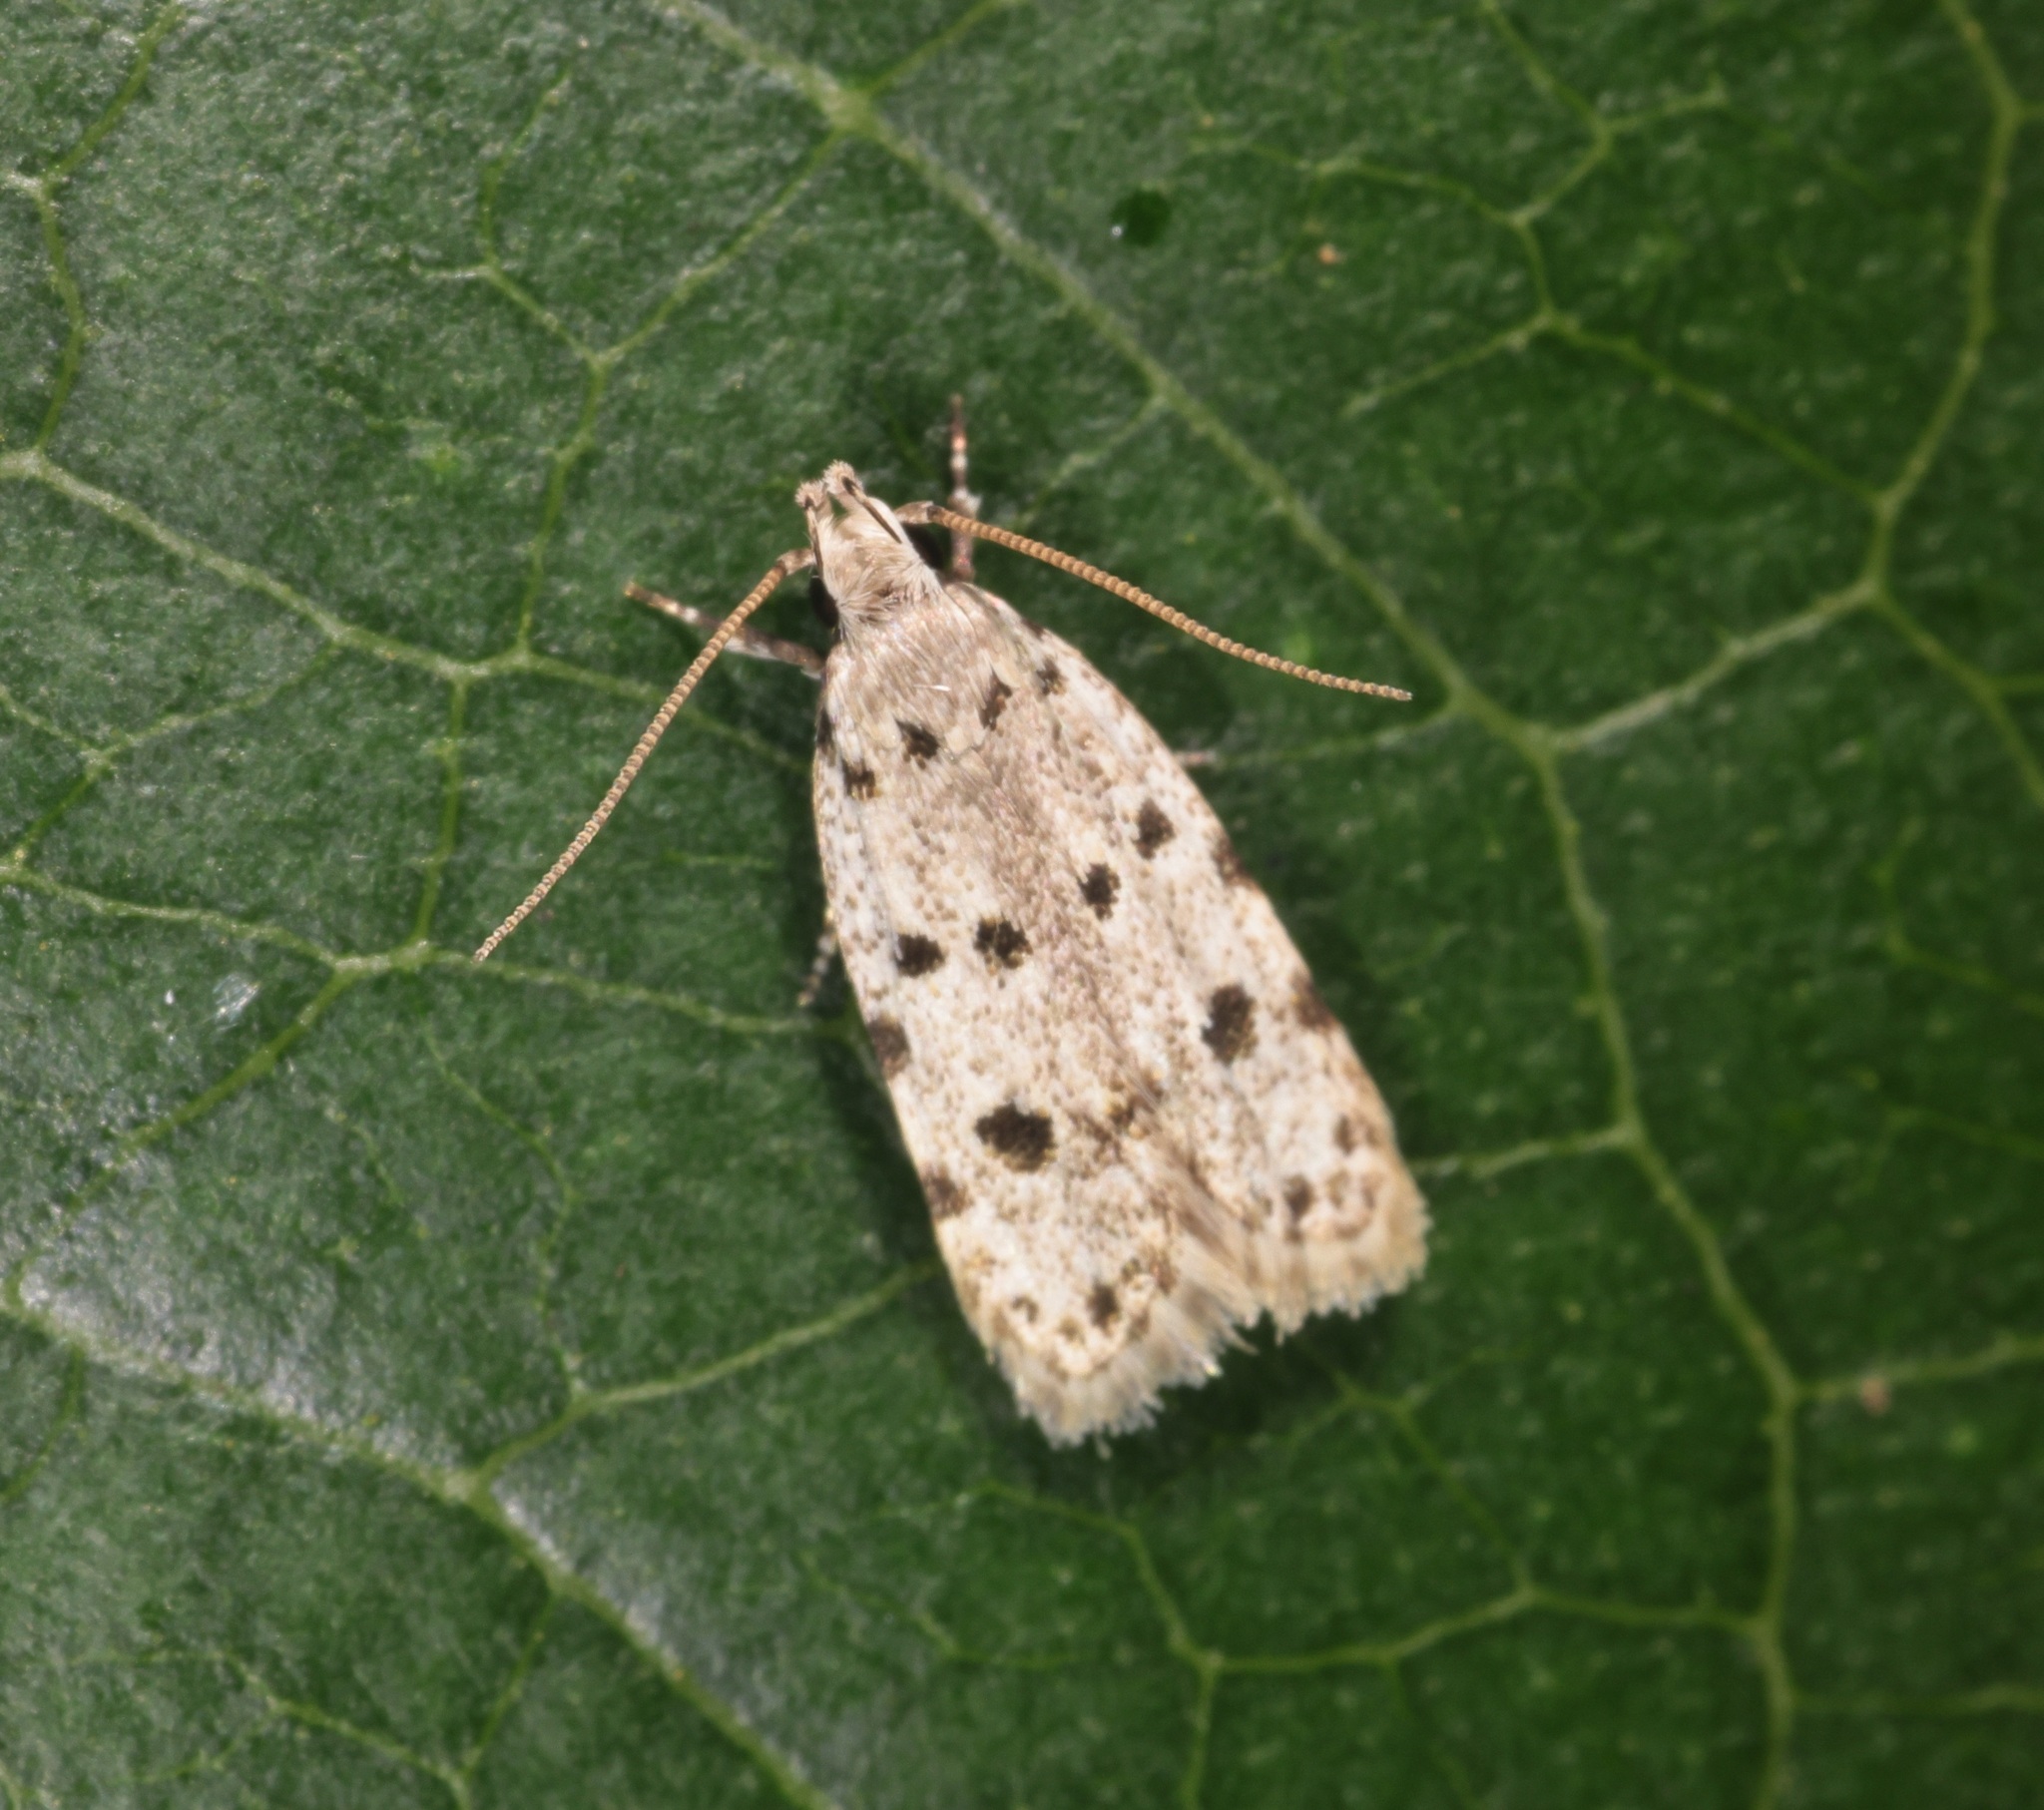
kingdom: Animalia
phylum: Arthropoda
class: Insecta
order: Lepidoptera
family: Autostichidae
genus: Autosticha
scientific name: Autosticha calceata
